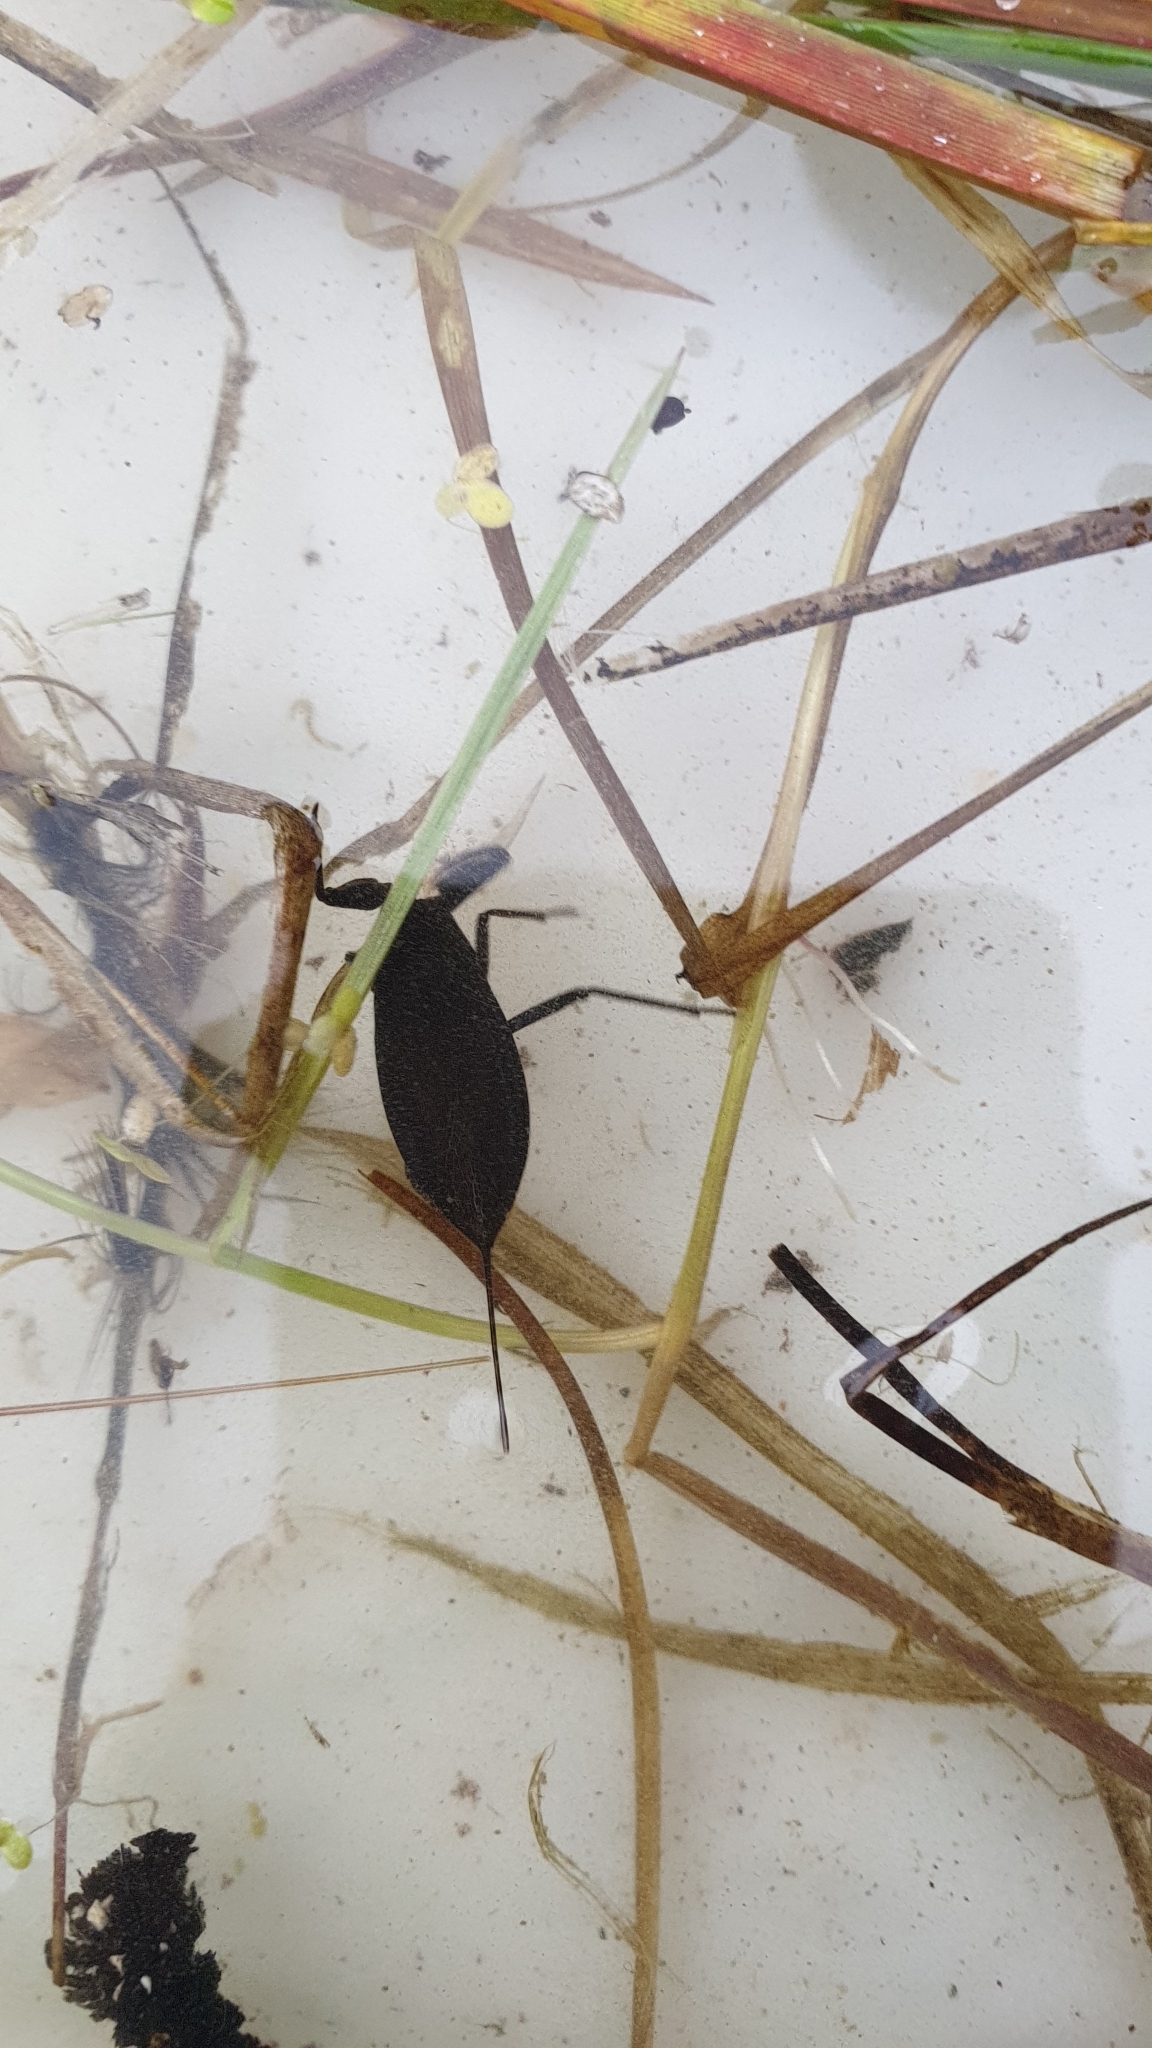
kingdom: Animalia
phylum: Arthropoda
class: Insecta
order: Hemiptera
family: Nepidae
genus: Nepa
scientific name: Nepa cinerea
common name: Water scorpion
